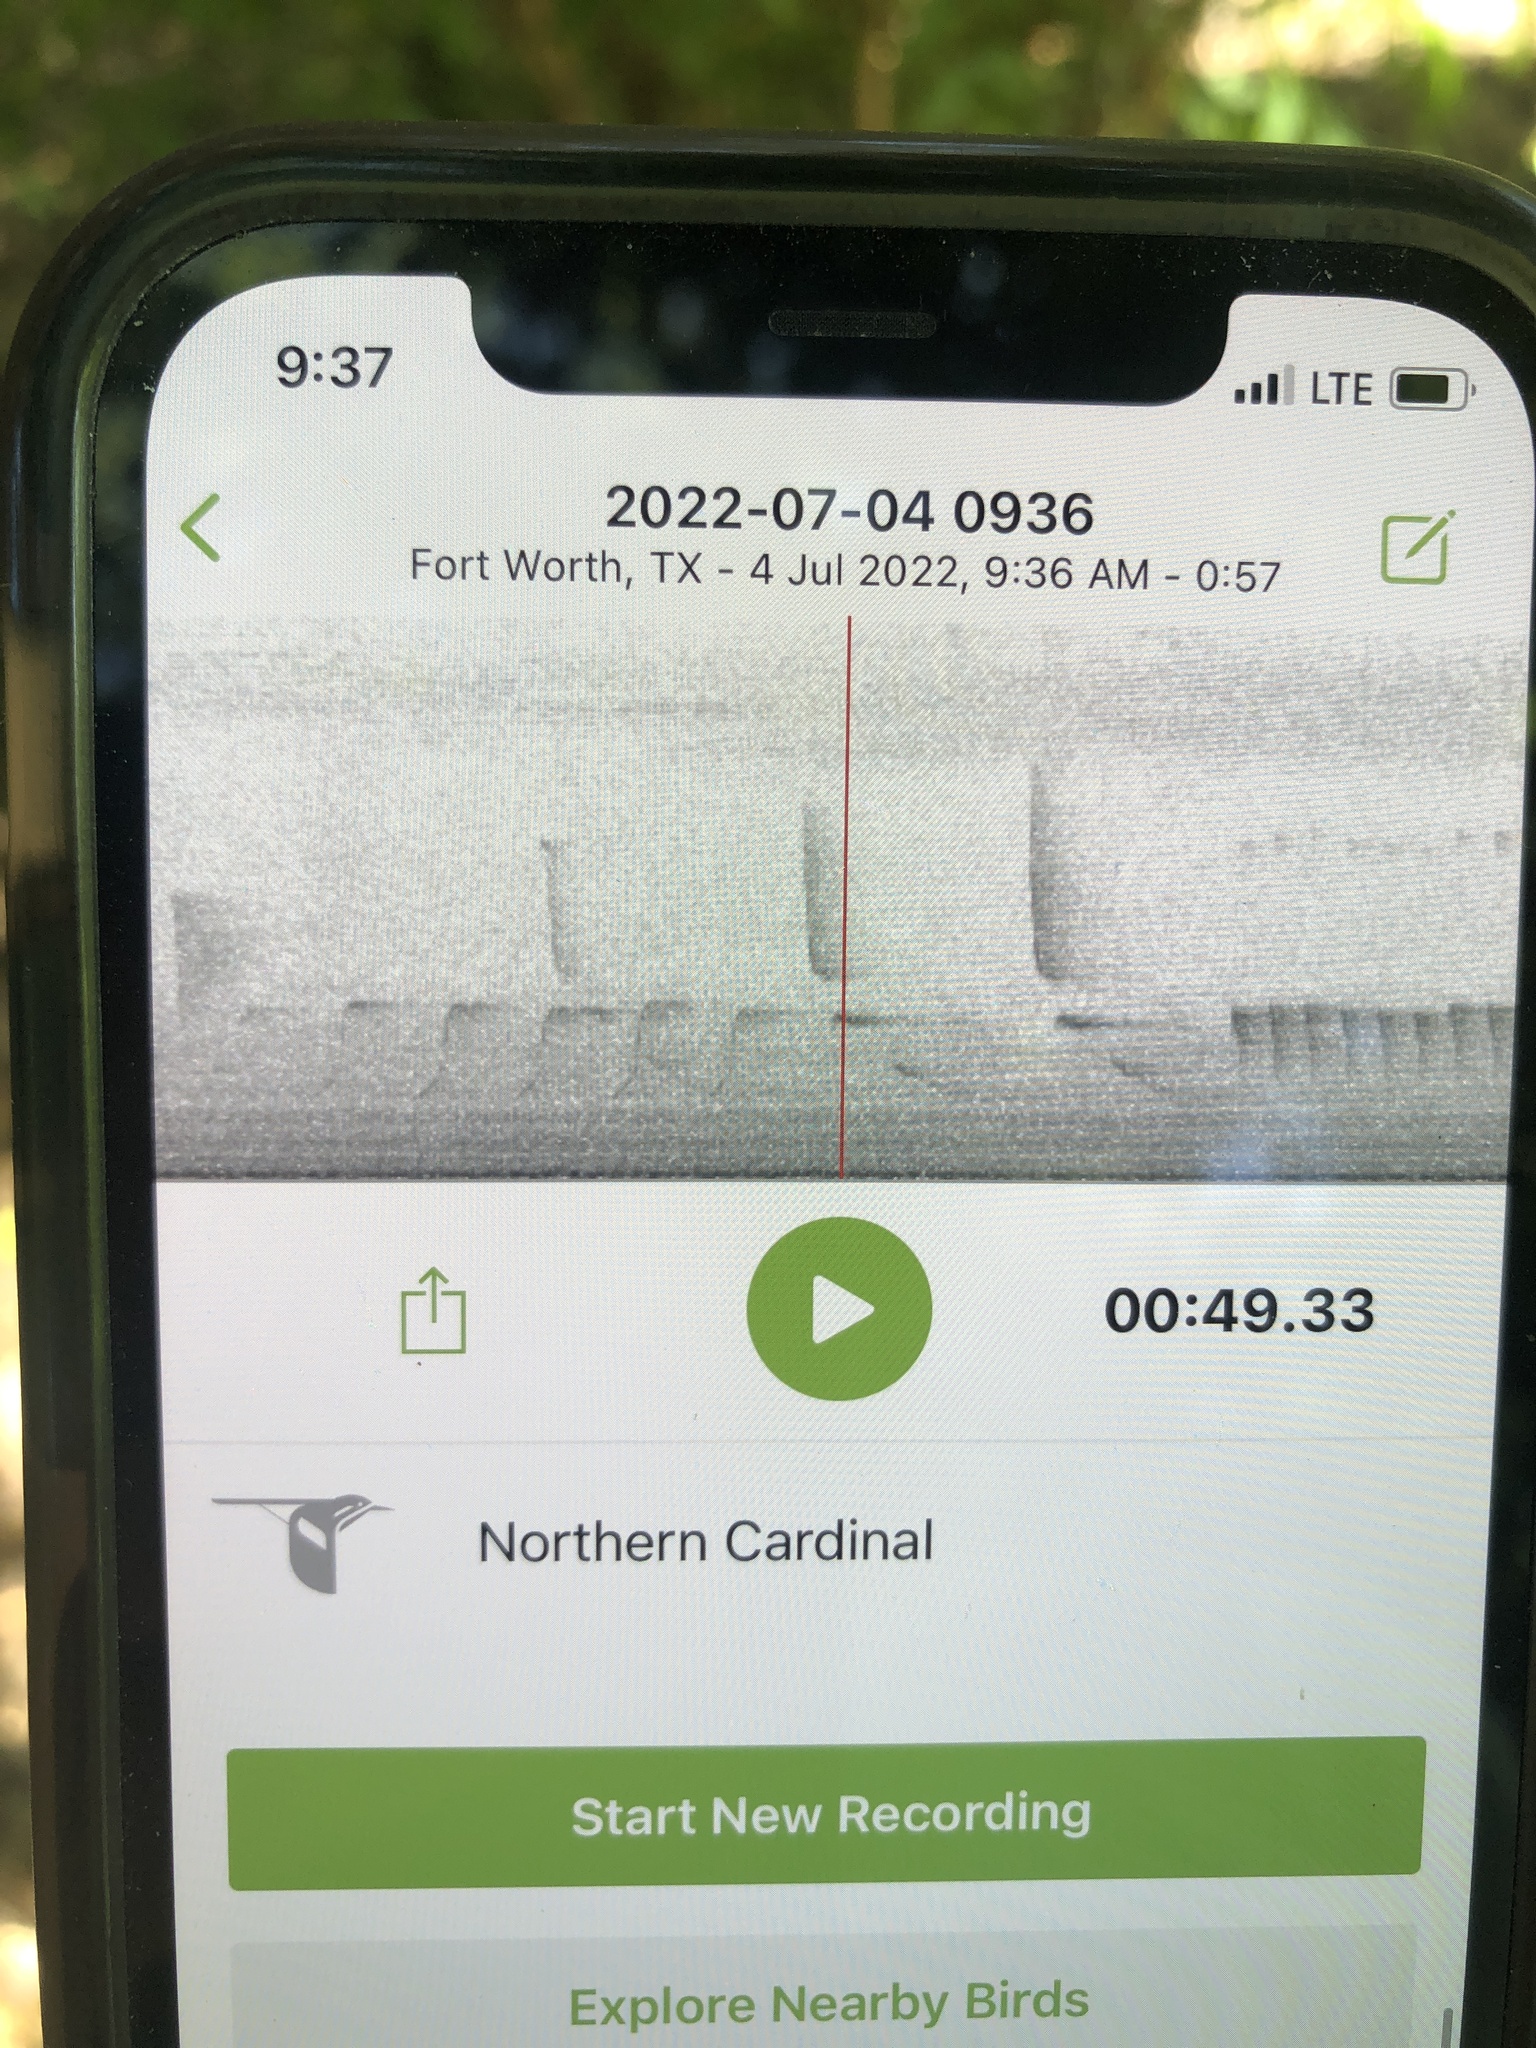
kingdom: Animalia
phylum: Chordata
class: Aves
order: Passeriformes
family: Cardinalidae
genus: Cardinalis
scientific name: Cardinalis cardinalis
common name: Northern cardinal
